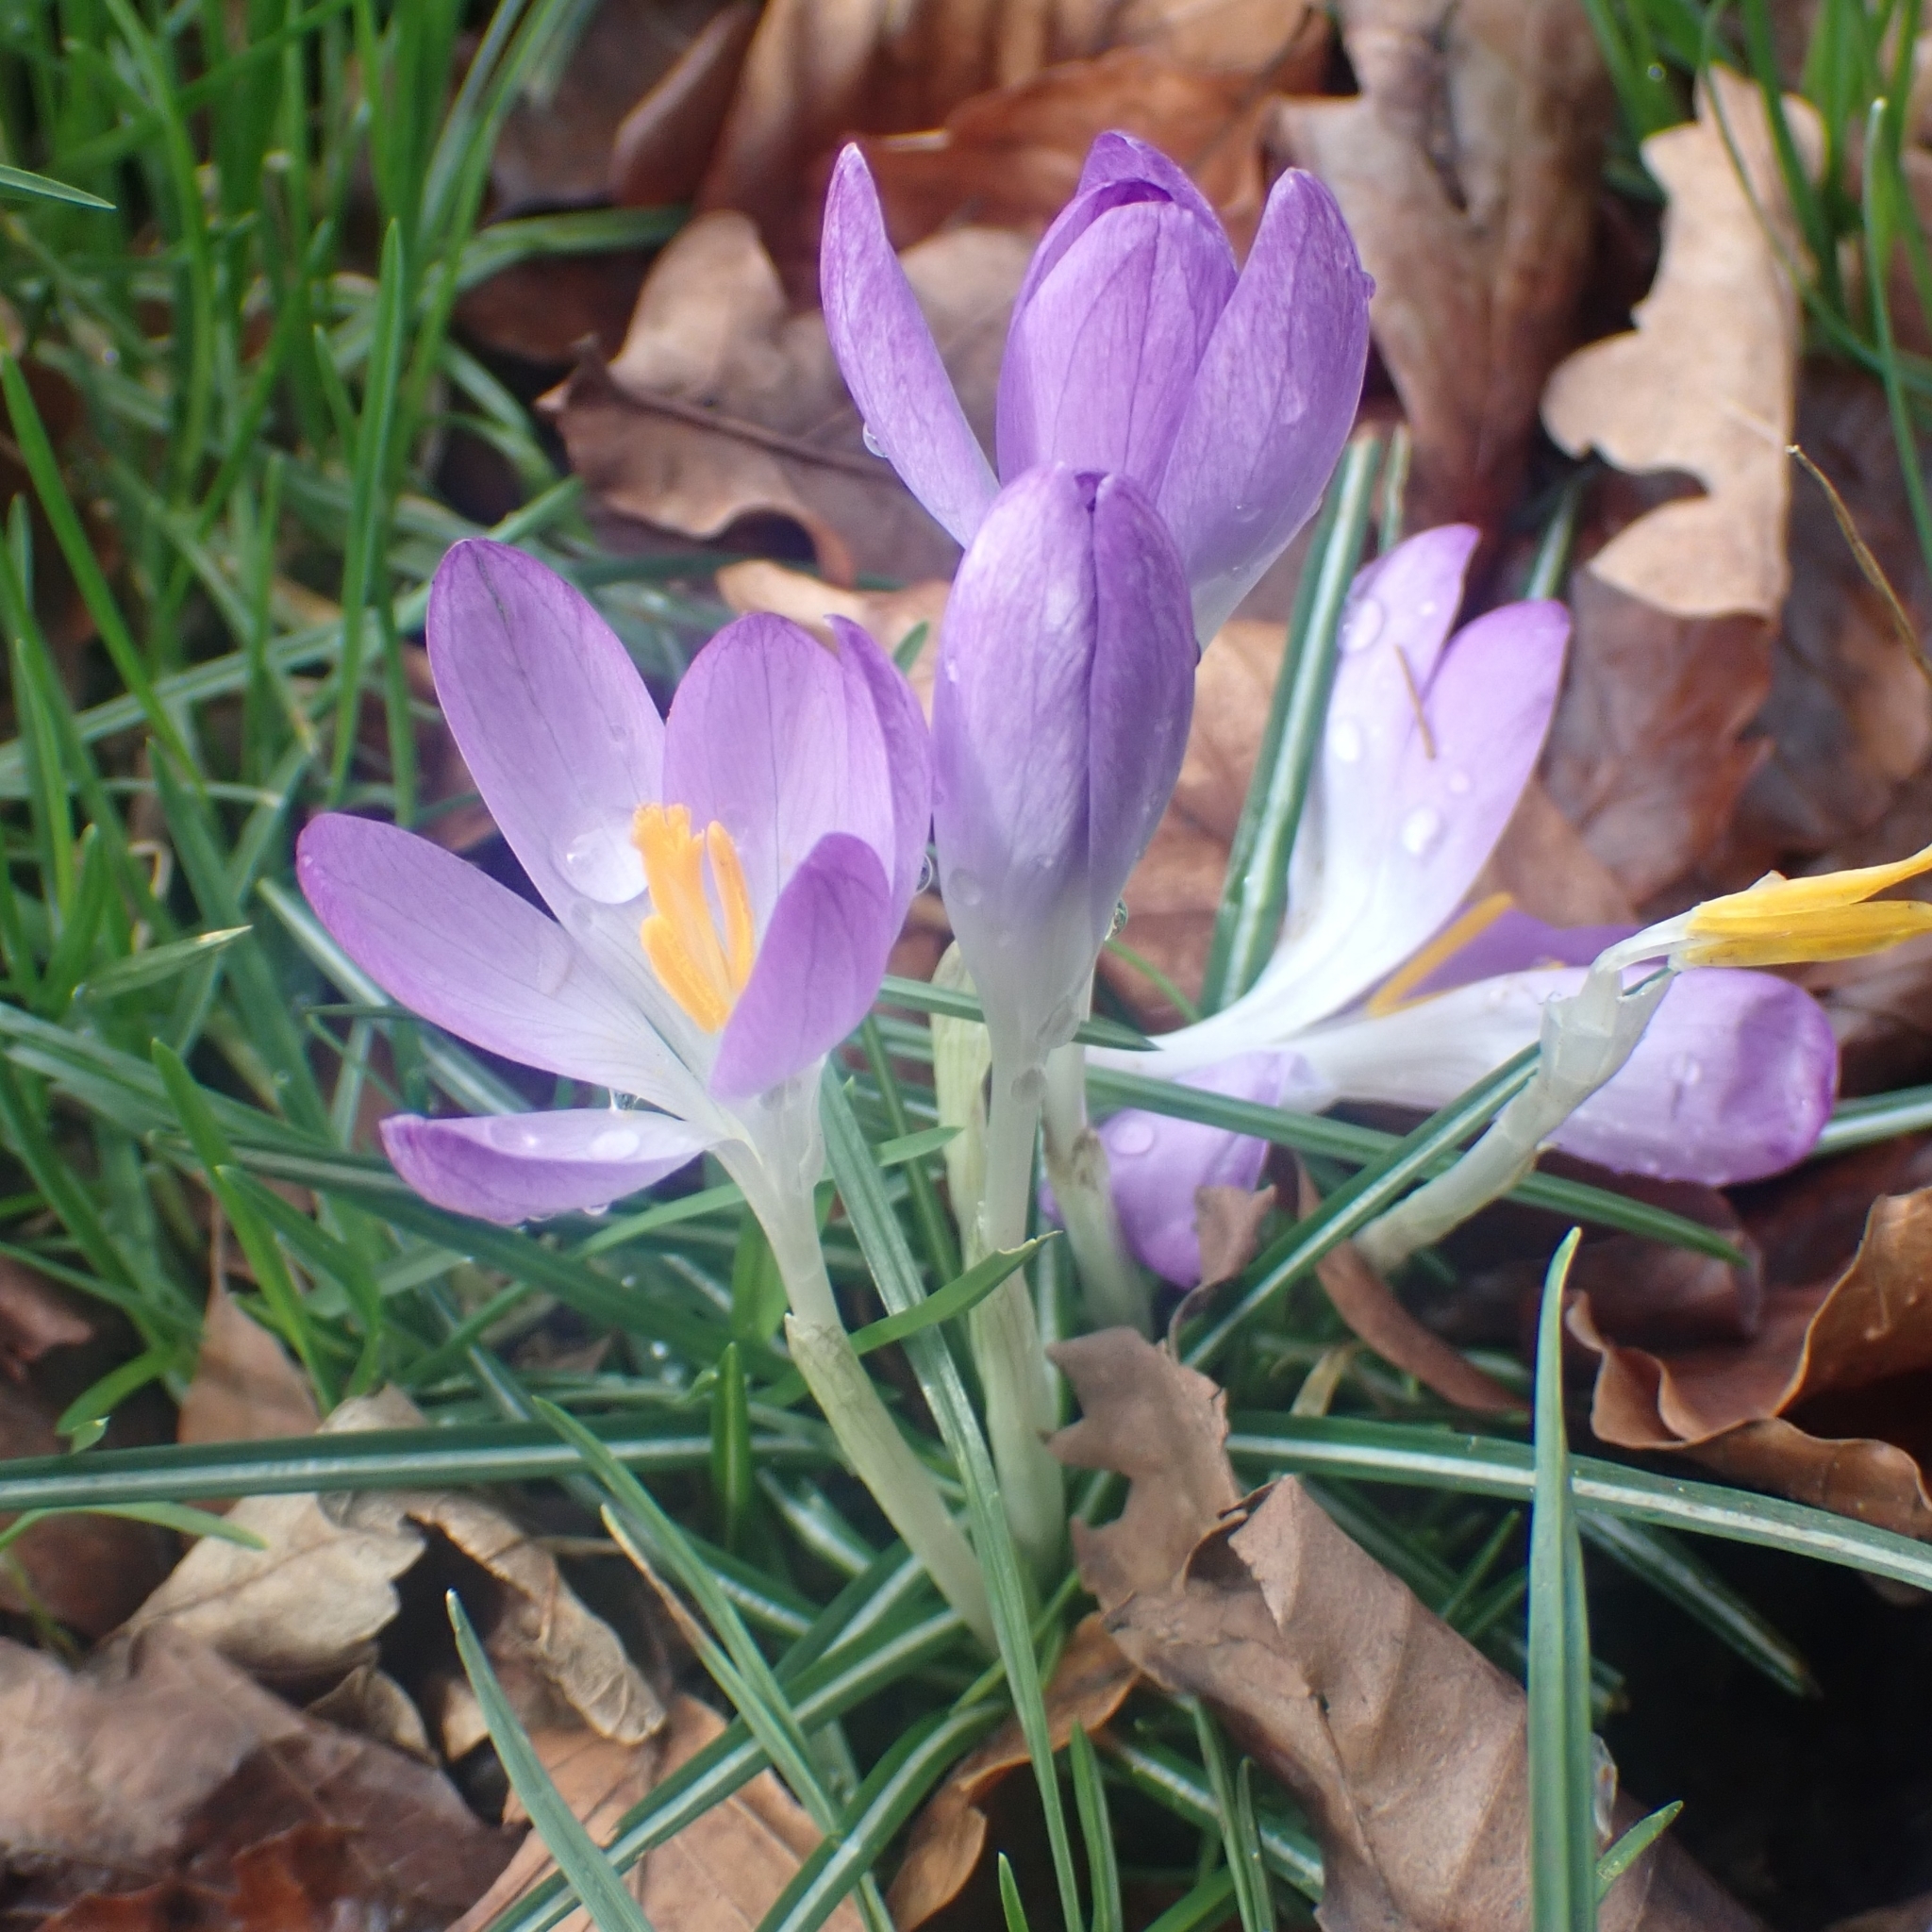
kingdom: Plantae
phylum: Tracheophyta
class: Liliopsida
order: Asparagales
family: Iridaceae
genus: Crocus
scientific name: Crocus tommasinianus
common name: Early crocus
